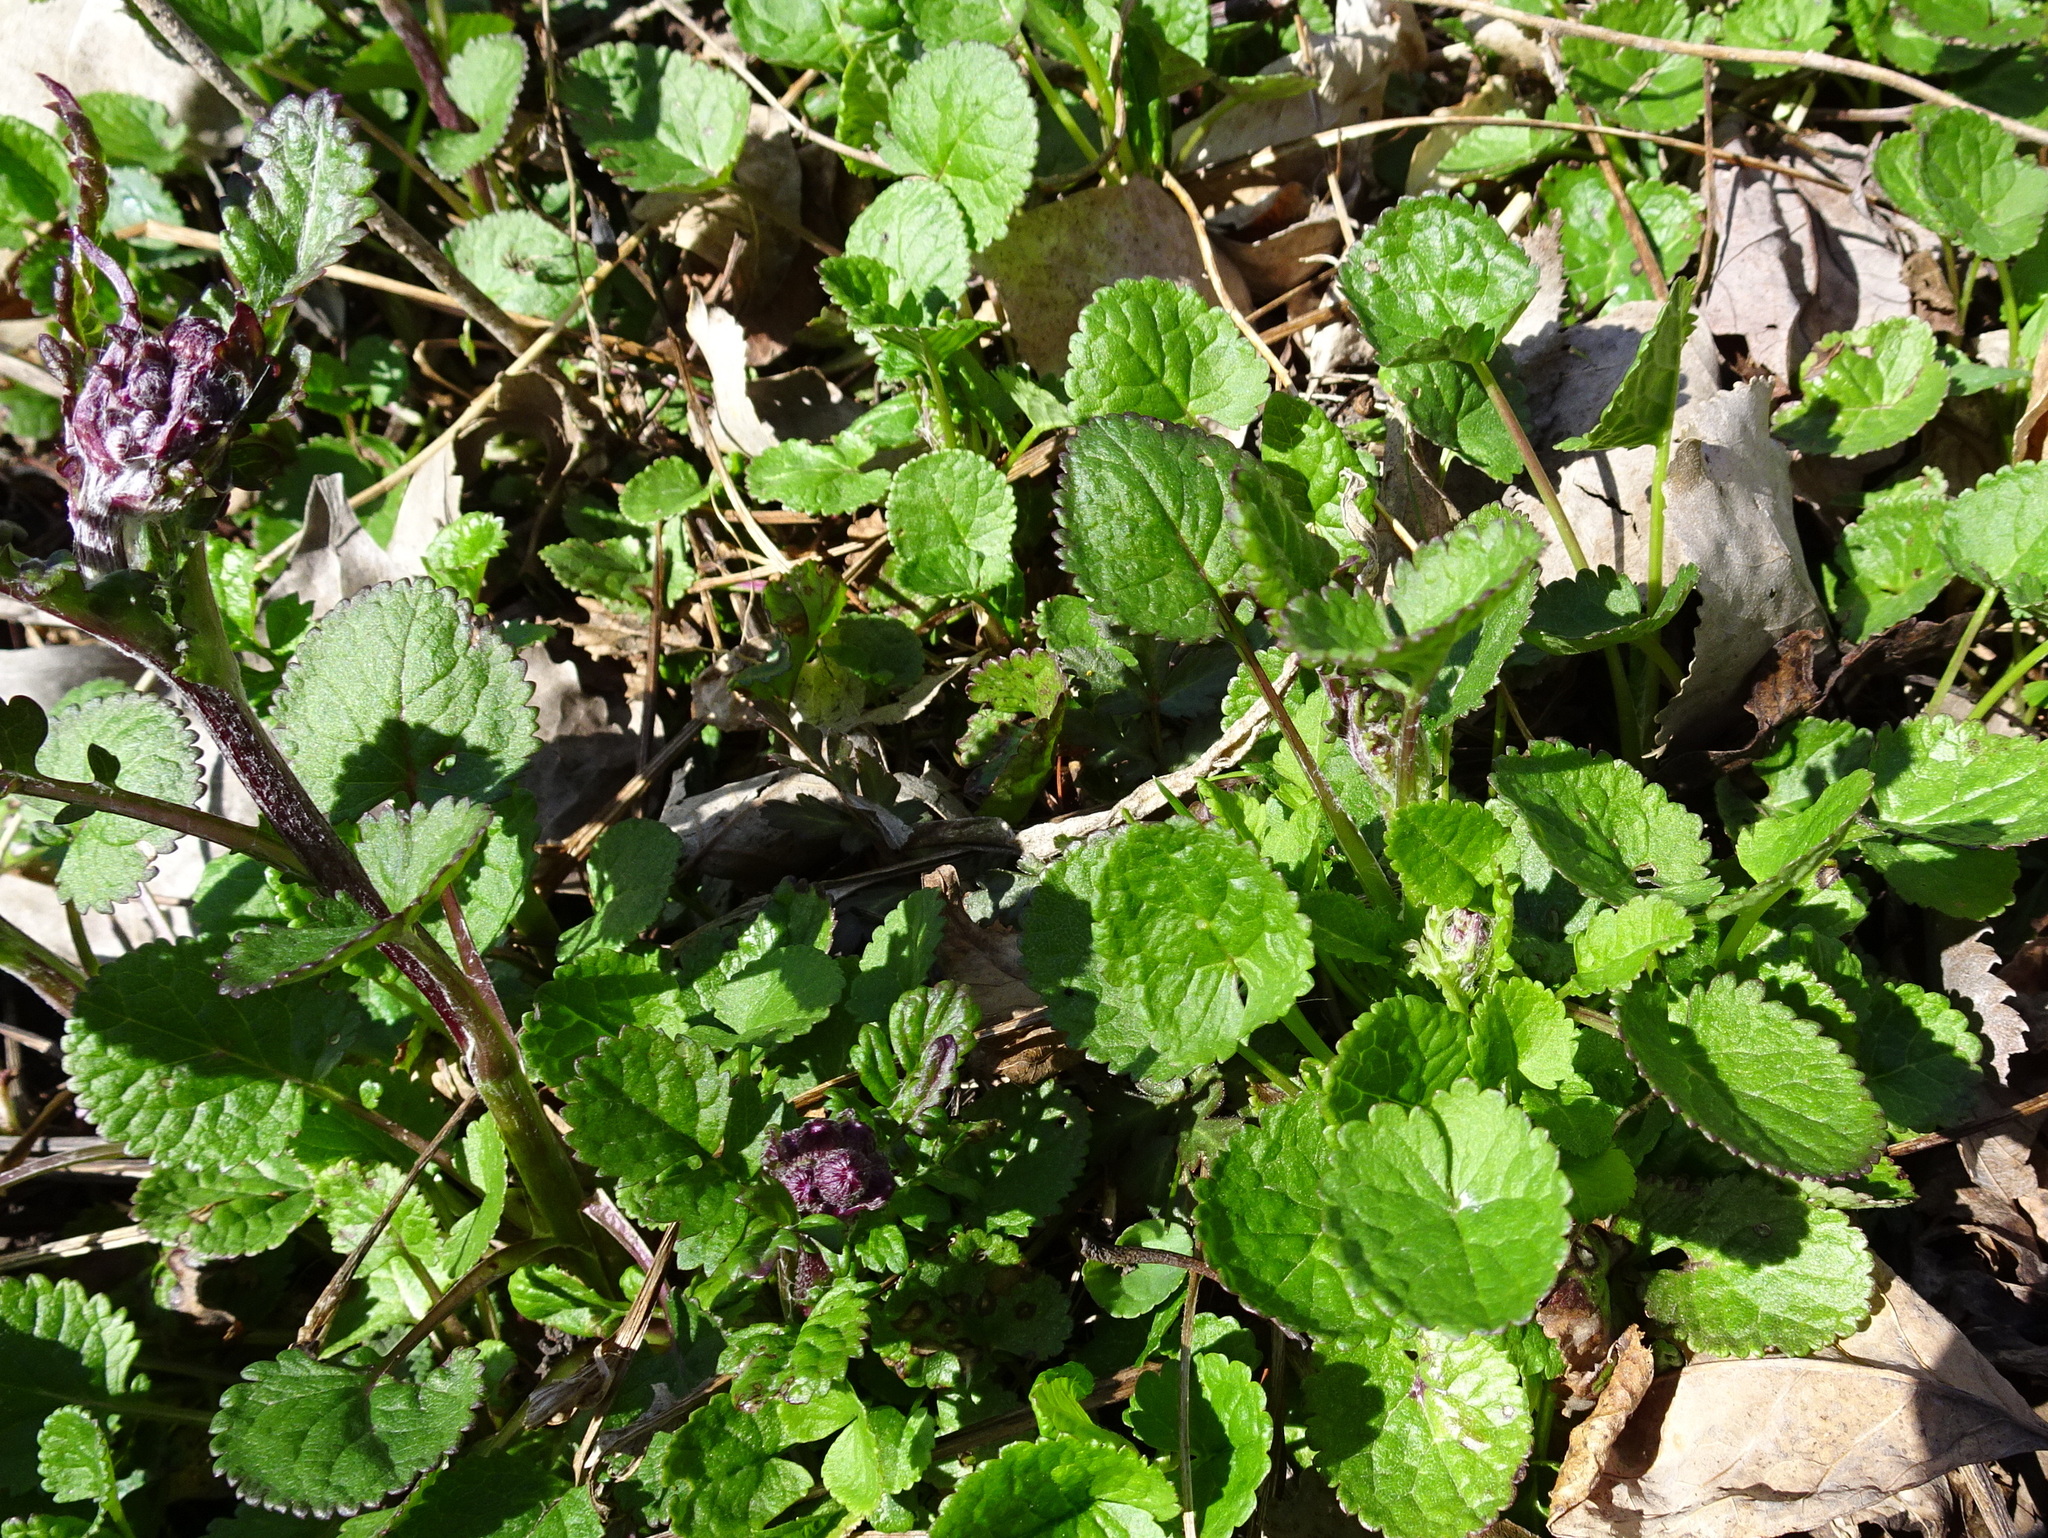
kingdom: Plantae
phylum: Tracheophyta
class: Magnoliopsida
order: Asterales
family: Asteraceae
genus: Packera
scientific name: Packera aurea
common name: Golden groundsel
